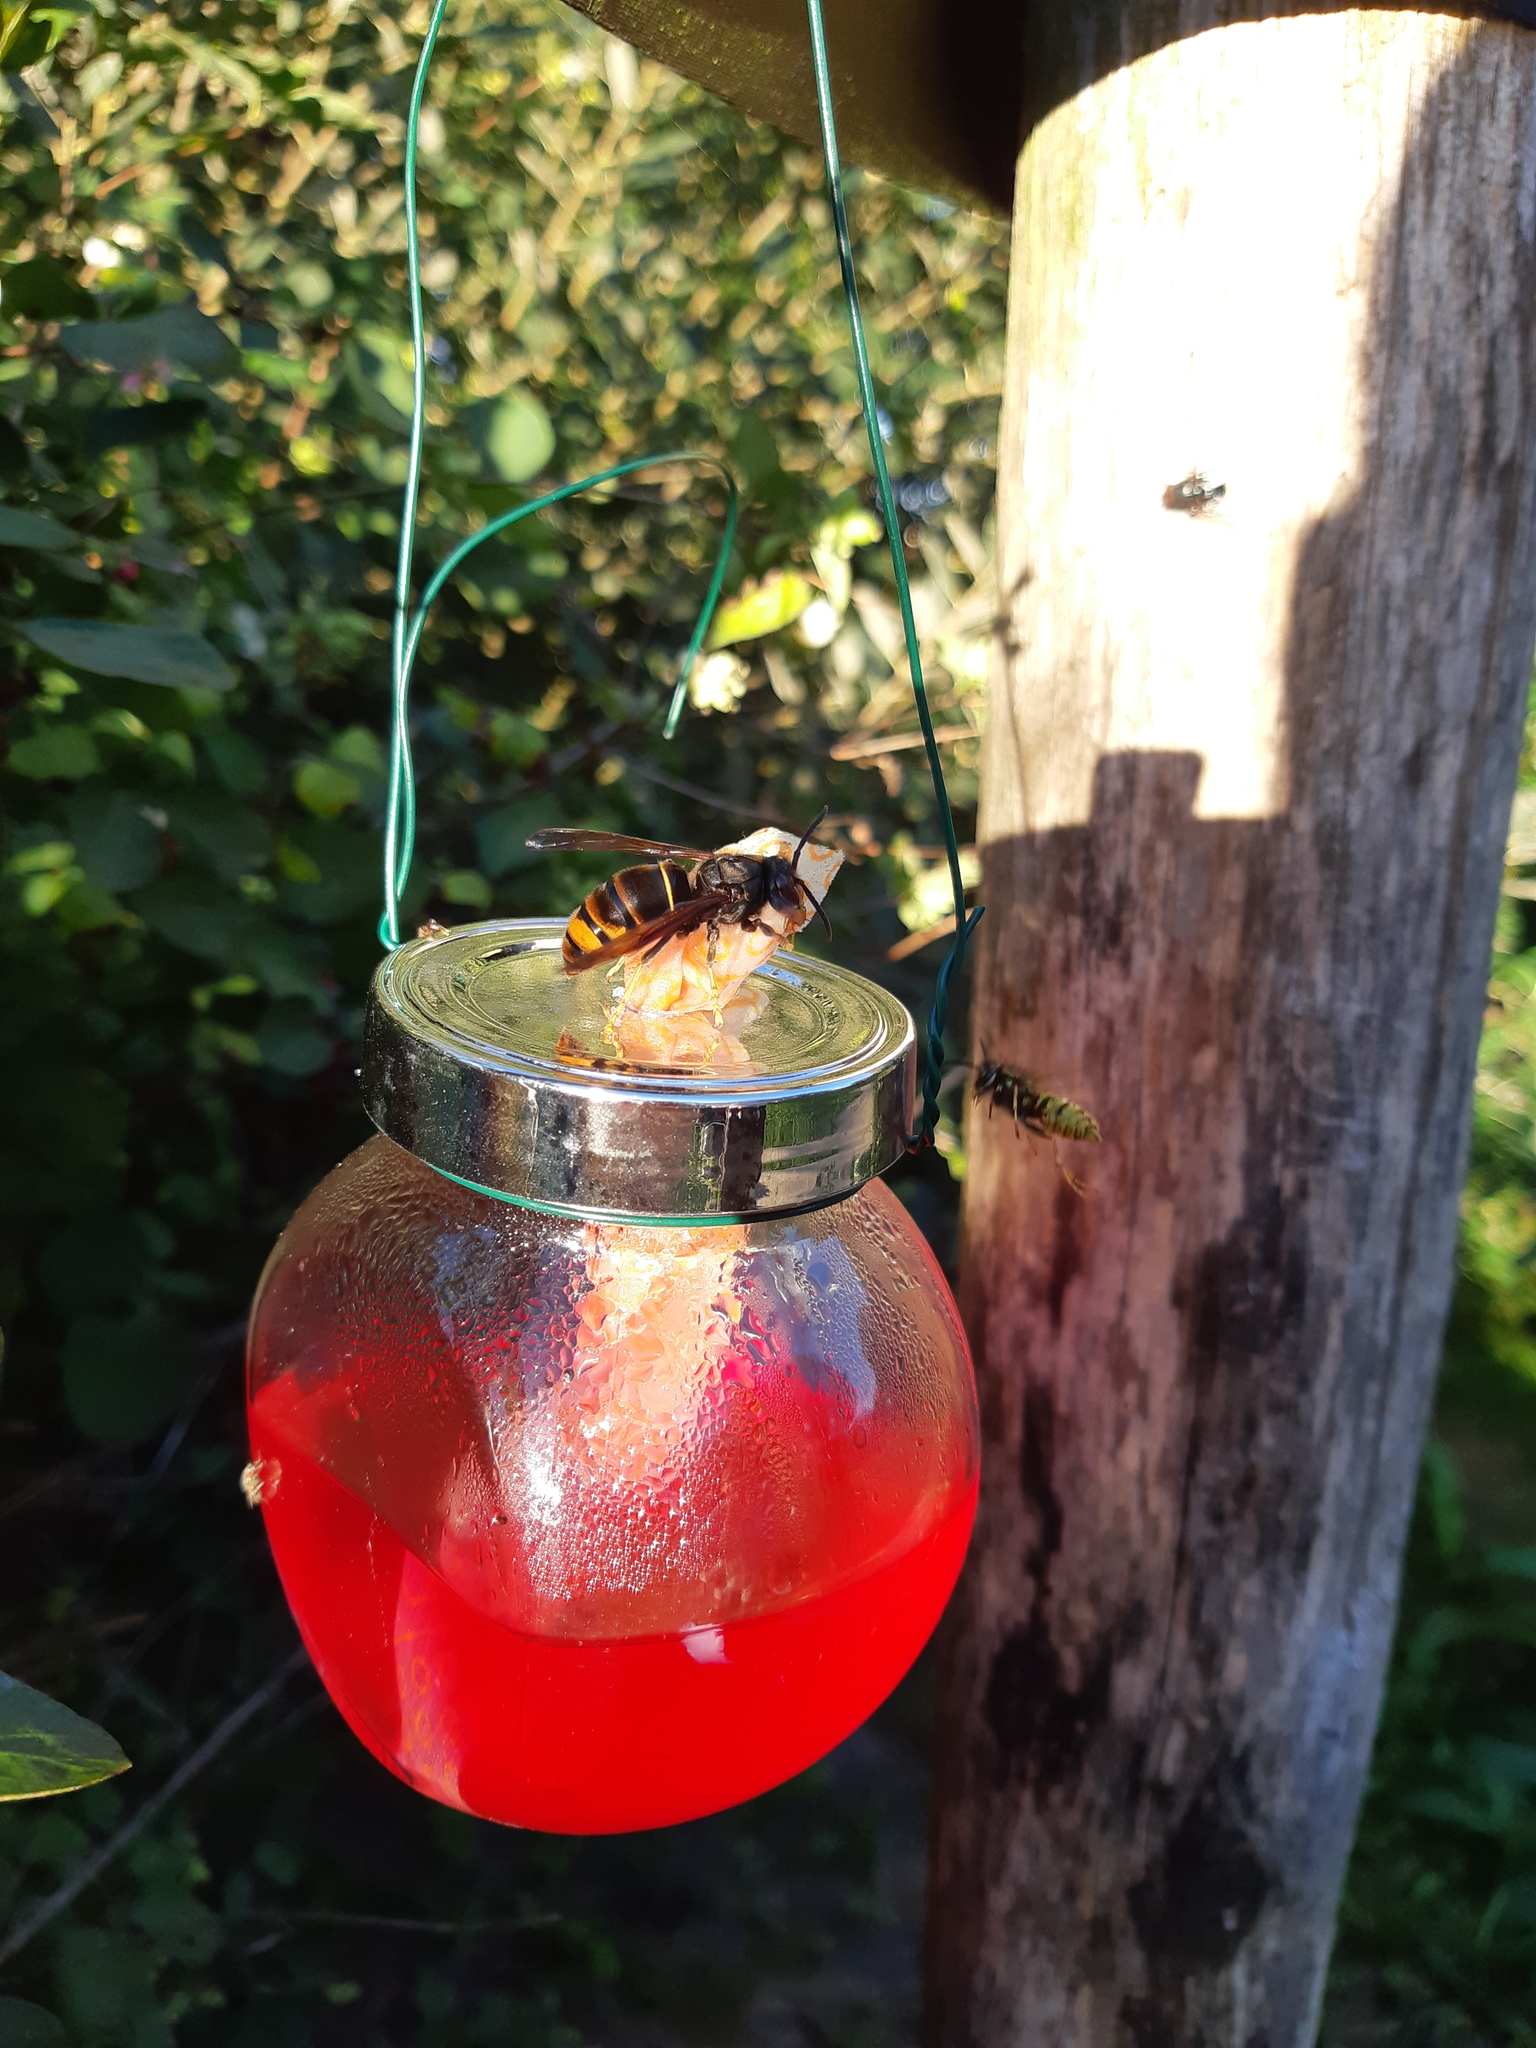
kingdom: Animalia
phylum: Arthropoda
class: Insecta
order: Hymenoptera
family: Vespidae
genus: Vespa
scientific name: Vespa velutina
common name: Asian hornet
